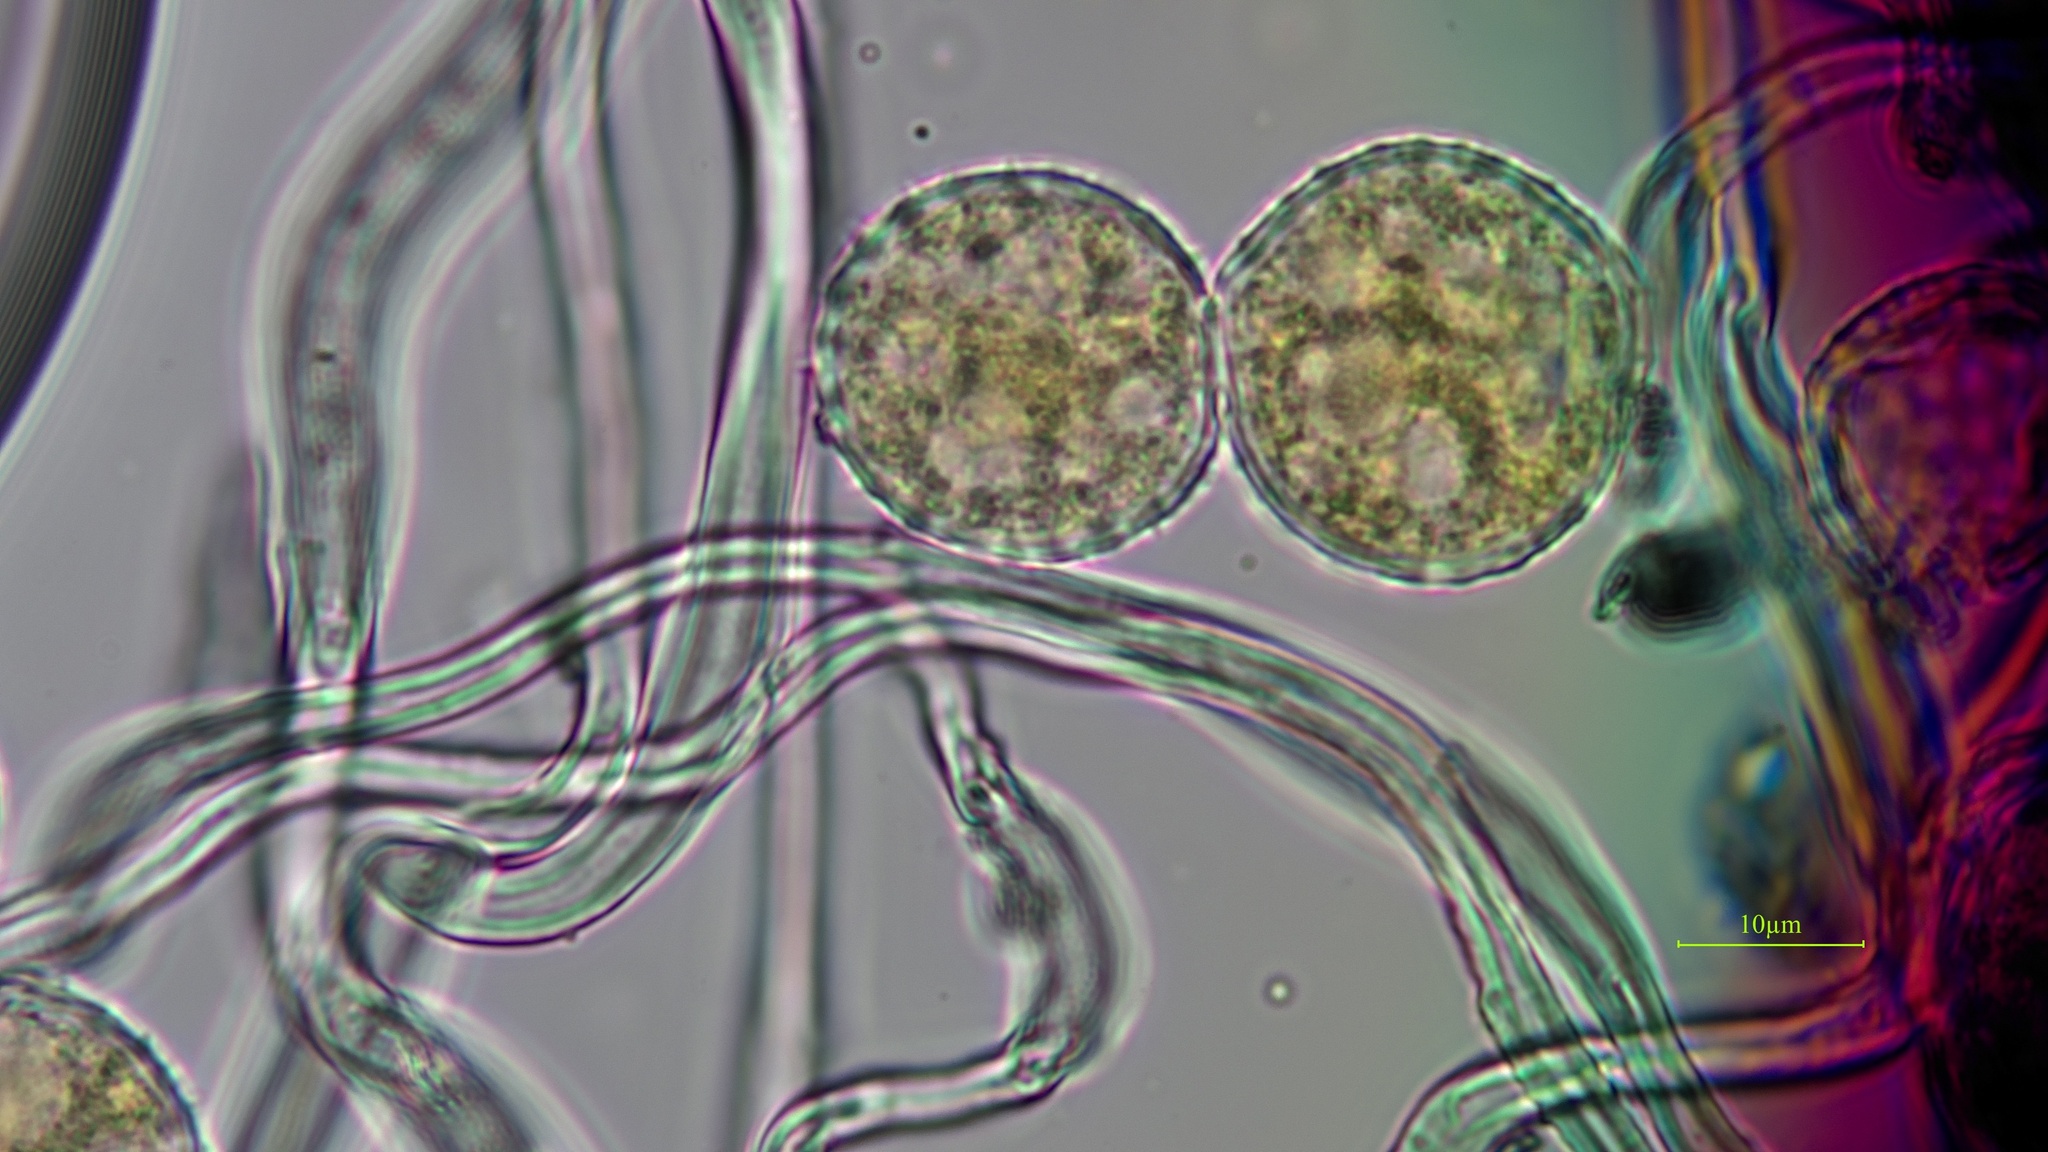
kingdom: Fungi
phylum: Basidiomycota
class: Pucciniomycetes
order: Pucciniales
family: Phragmidiaceae
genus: Phragmidium
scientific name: Phragmidium rubi-idaei
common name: Raspberry rust
